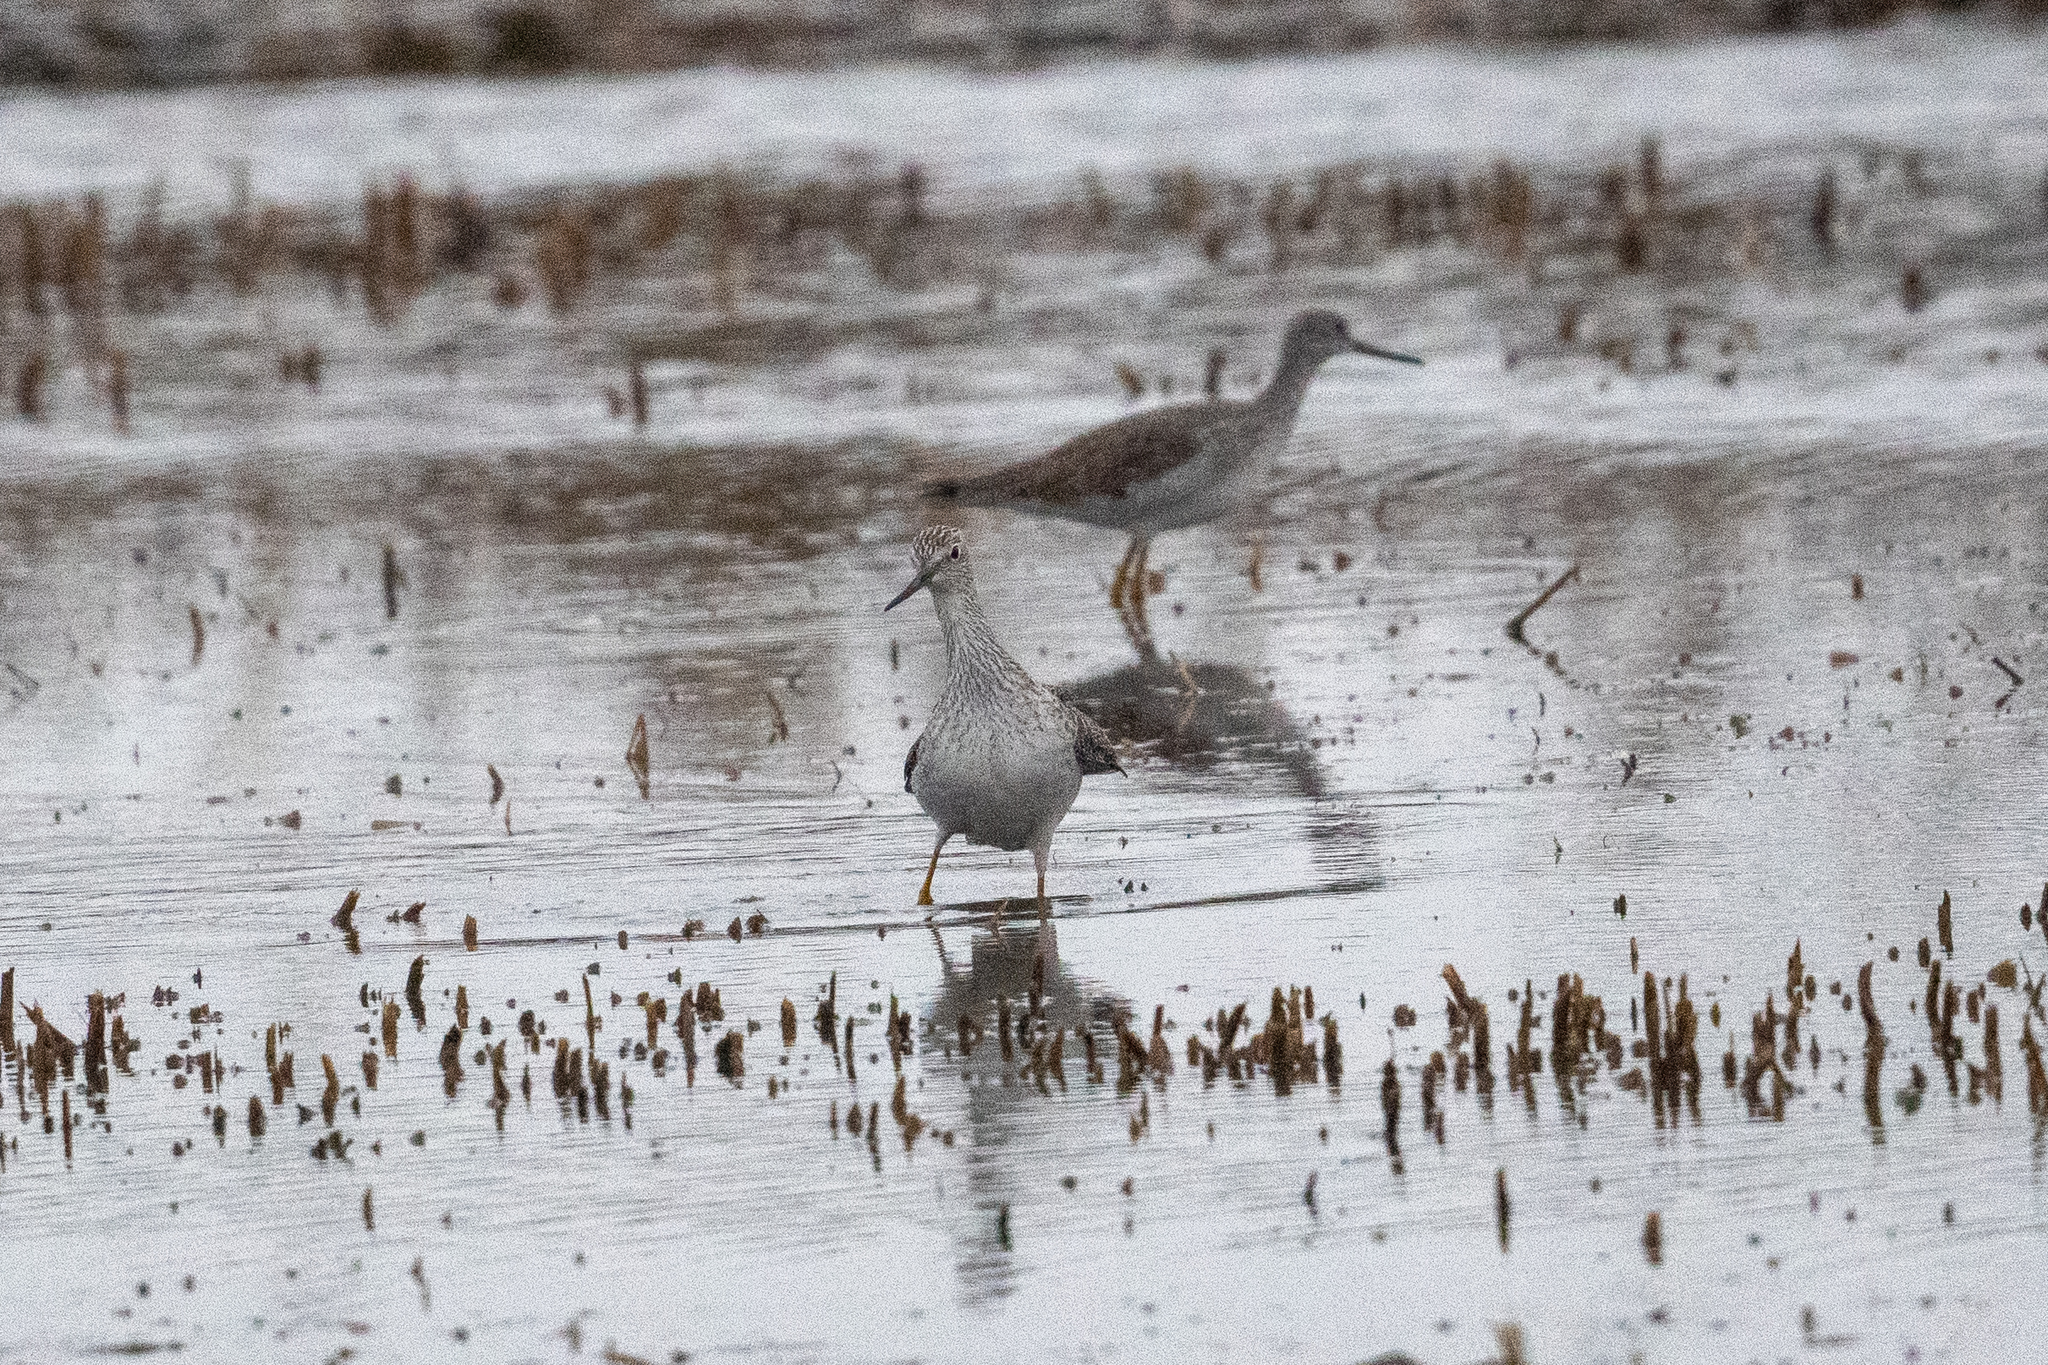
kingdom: Animalia
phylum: Chordata
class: Aves
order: Charadriiformes
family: Scolopacidae
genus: Tringa
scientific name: Tringa melanoleuca
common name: Greater yellowlegs
